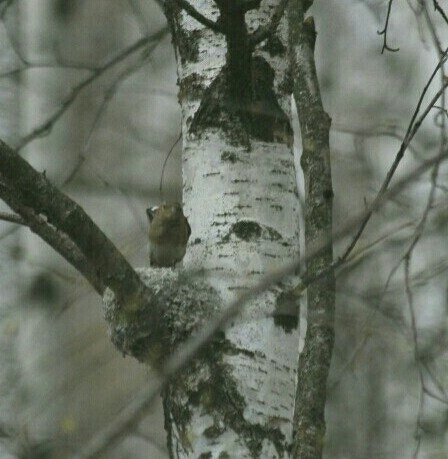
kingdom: Animalia
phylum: Chordata
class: Aves
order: Passeriformes
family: Fringillidae
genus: Fringilla
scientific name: Fringilla coelebs
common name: Common chaffinch
